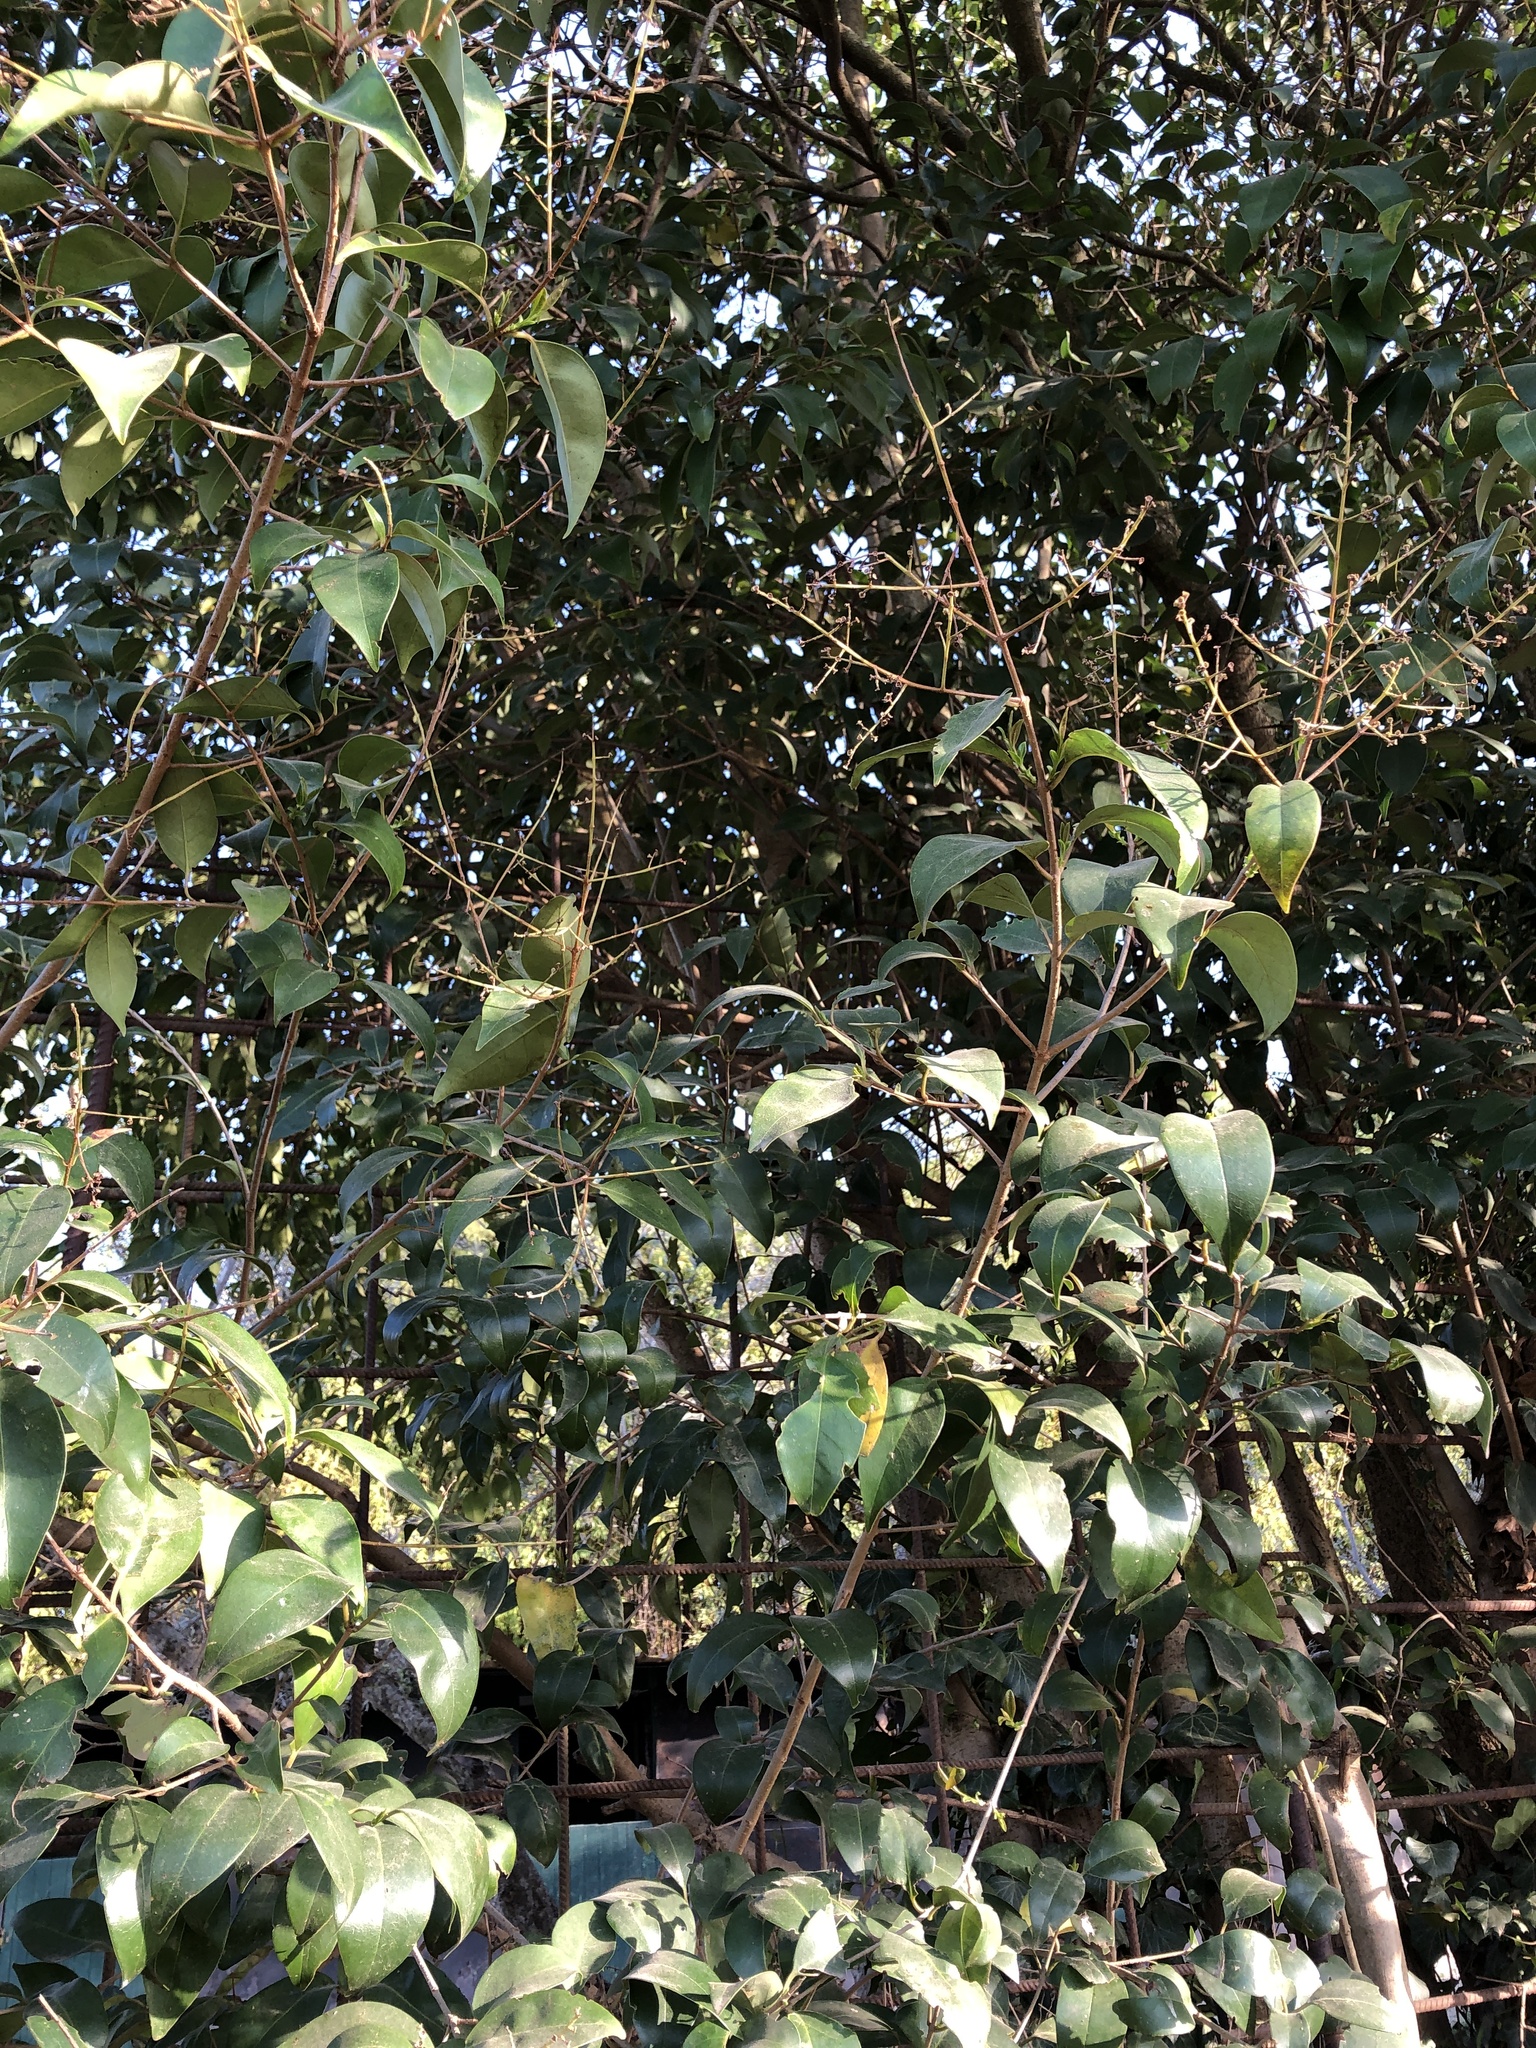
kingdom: Plantae
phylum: Tracheophyta
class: Magnoliopsida
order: Lamiales
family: Oleaceae
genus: Ligustrum
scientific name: Ligustrum lucidum
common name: Glossy privet
